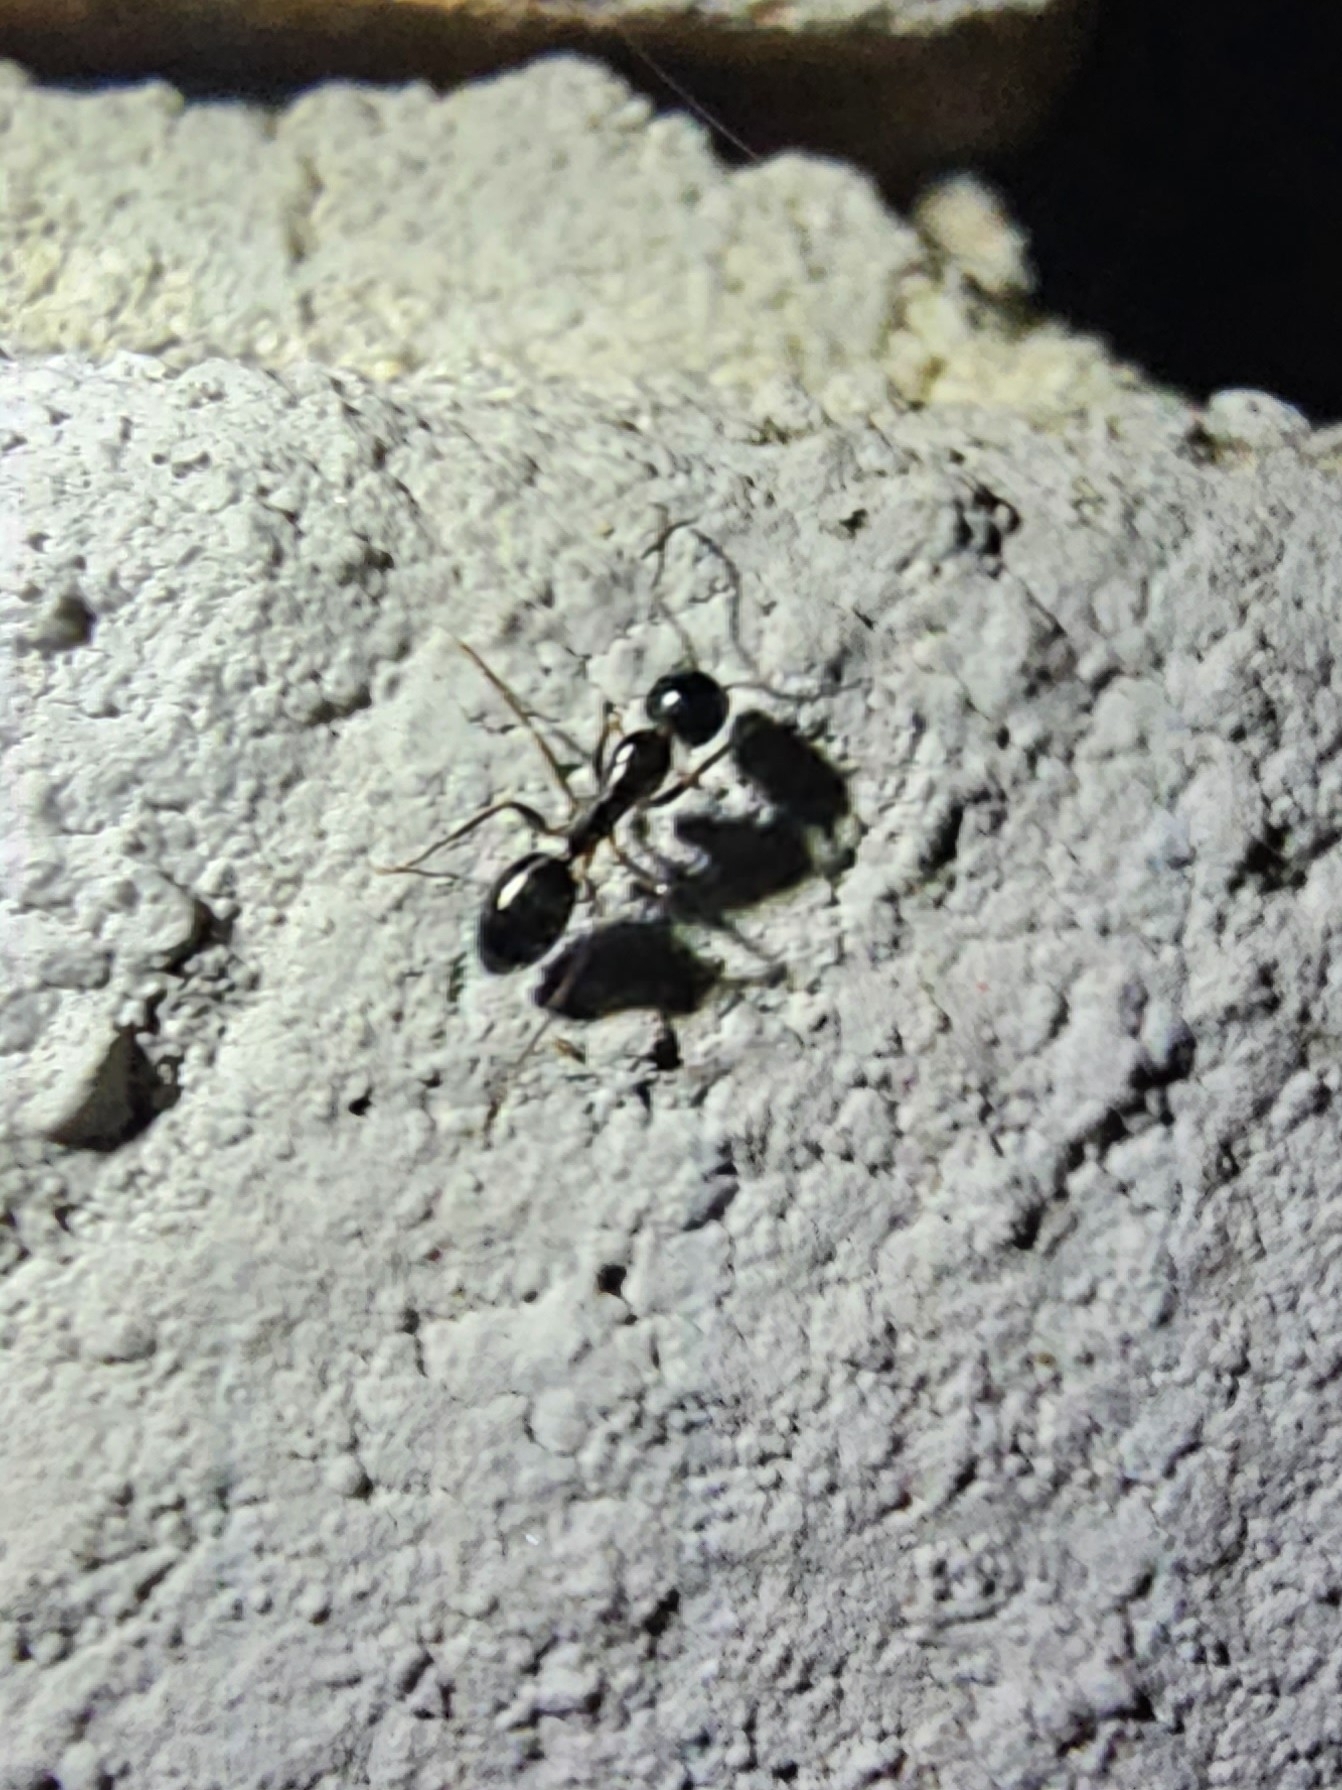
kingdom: Animalia
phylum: Arthropoda
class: Insecta
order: Hymenoptera
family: Formicidae
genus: Camponotus
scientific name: Camponotus fallax
